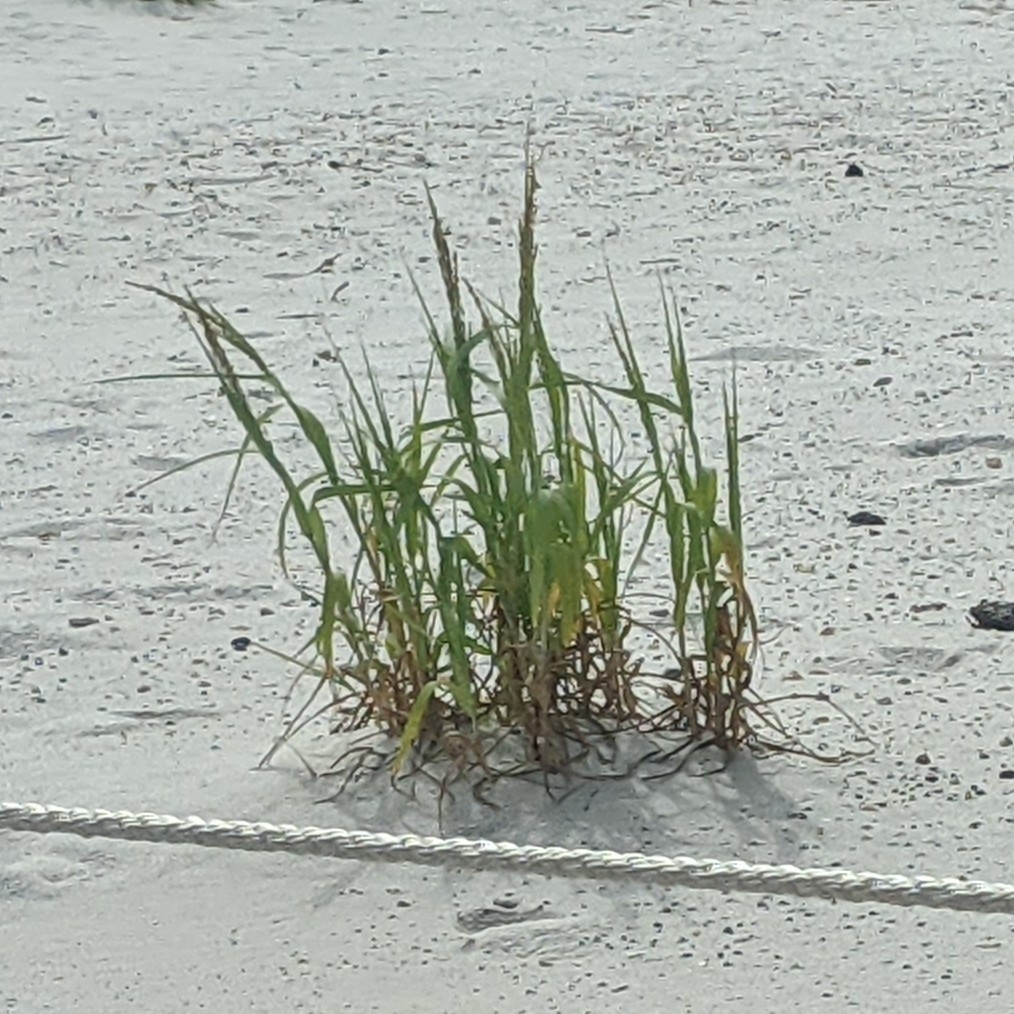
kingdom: Plantae
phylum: Tracheophyta
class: Liliopsida
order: Poales
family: Poaceae
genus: Panicum
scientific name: Panicum amarum
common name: Bitter panicum
